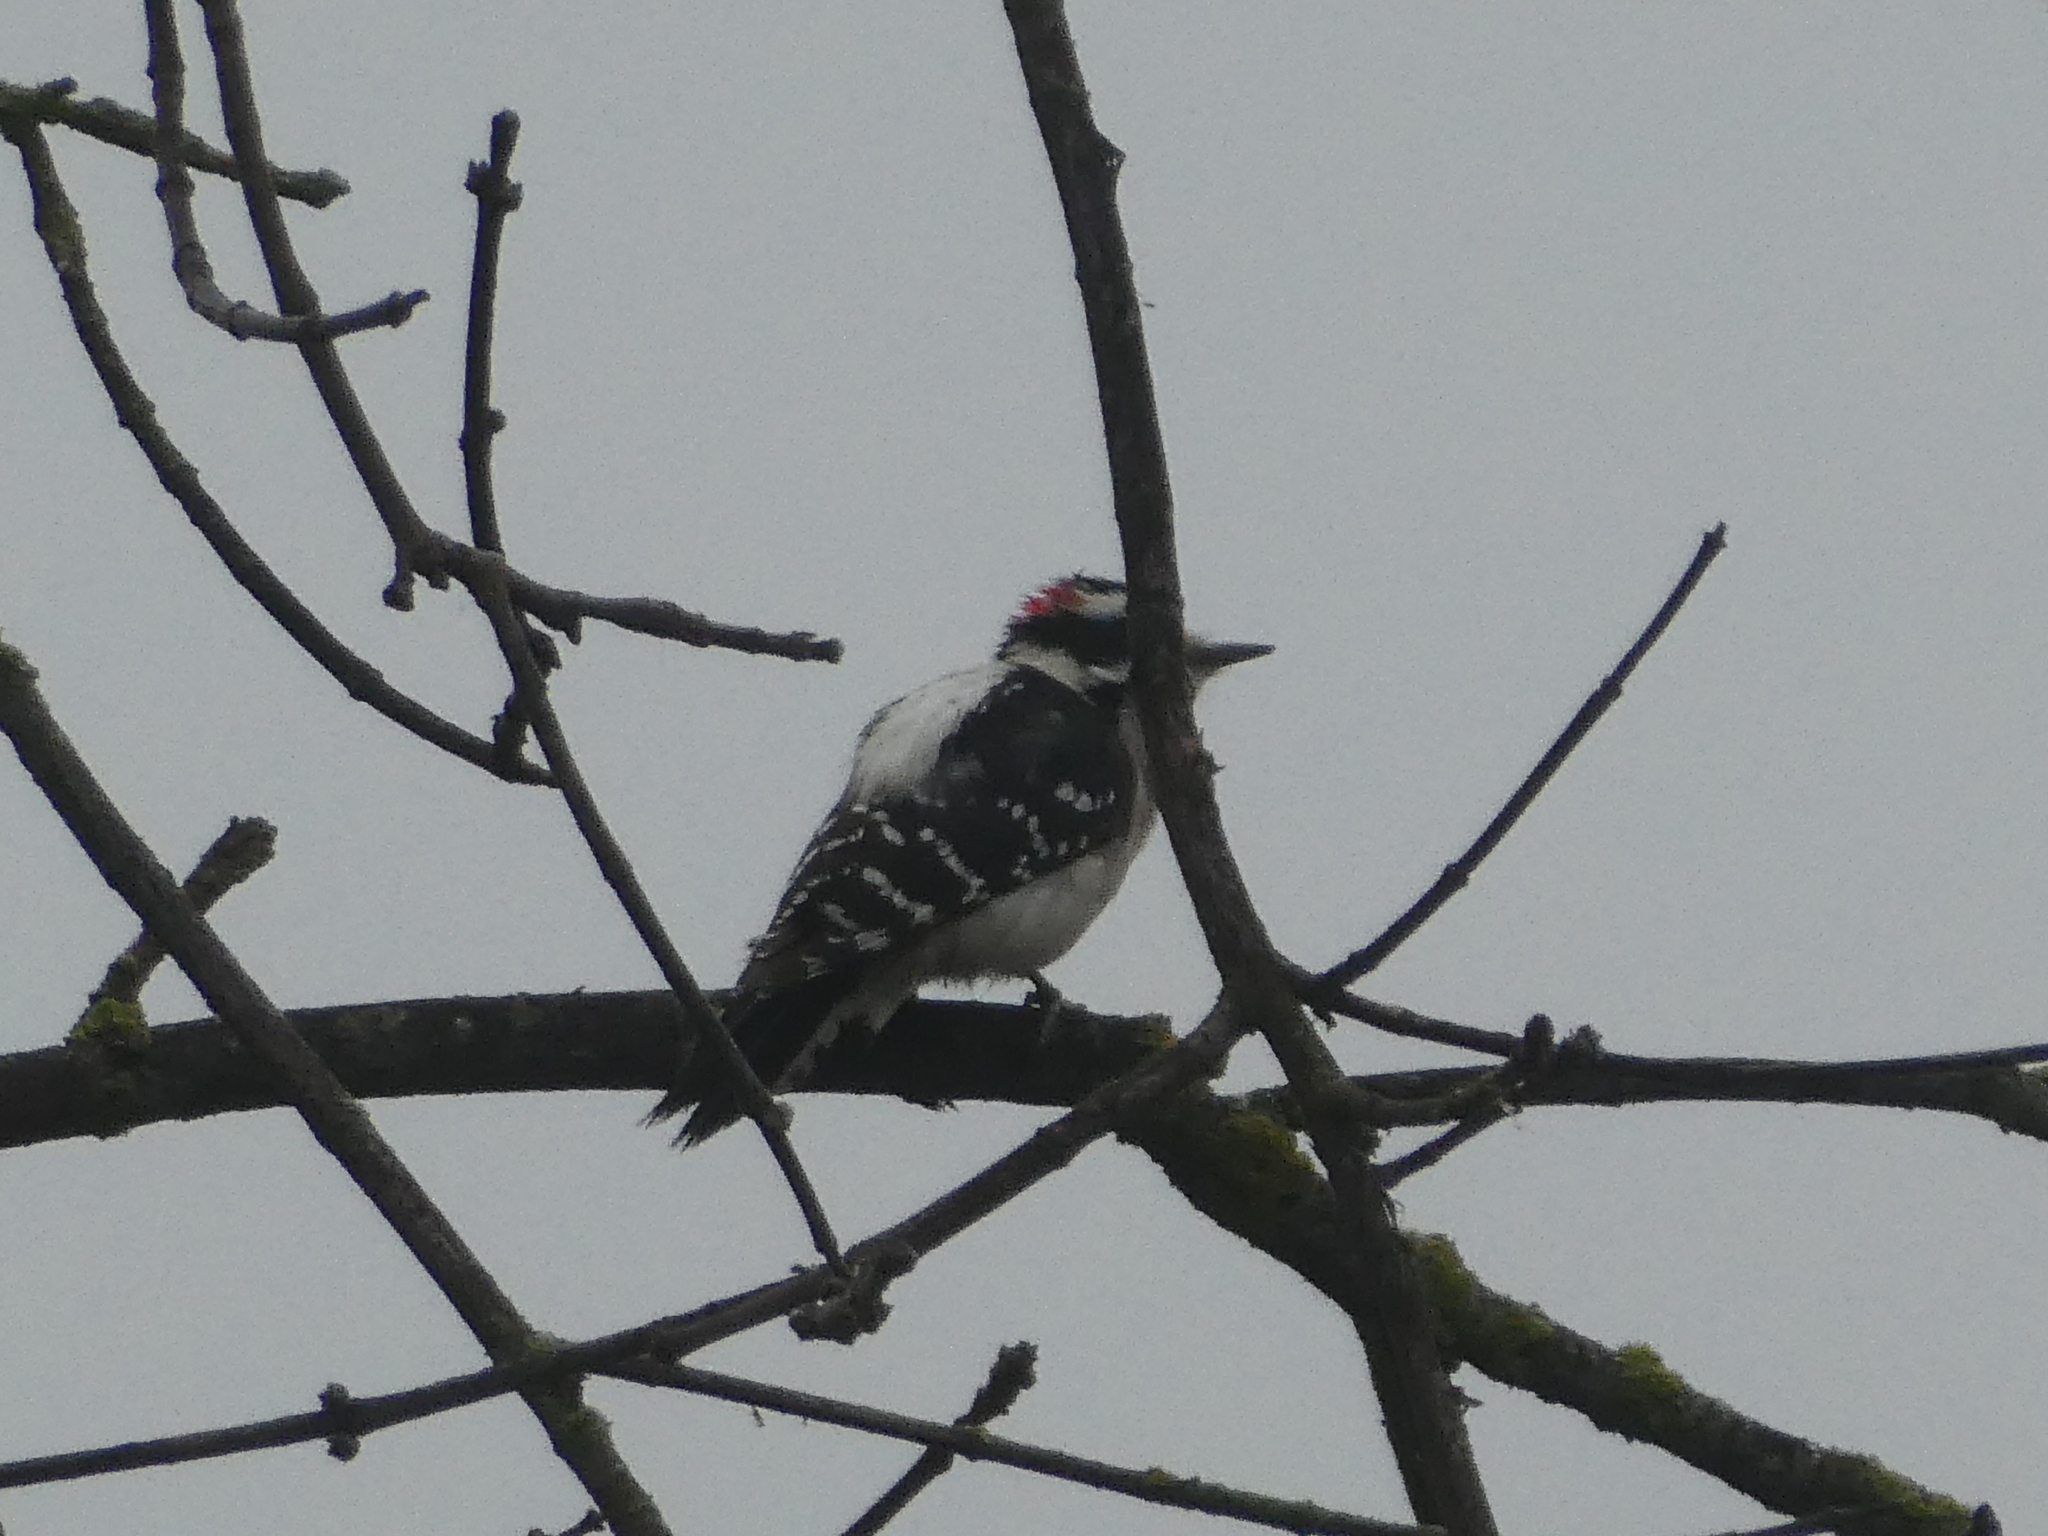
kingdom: Animalia
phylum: Chordata
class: Aves
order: Piciformes
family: Picidae
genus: Dryobates
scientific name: Dryobates pubescens
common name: Downy woodpecker
